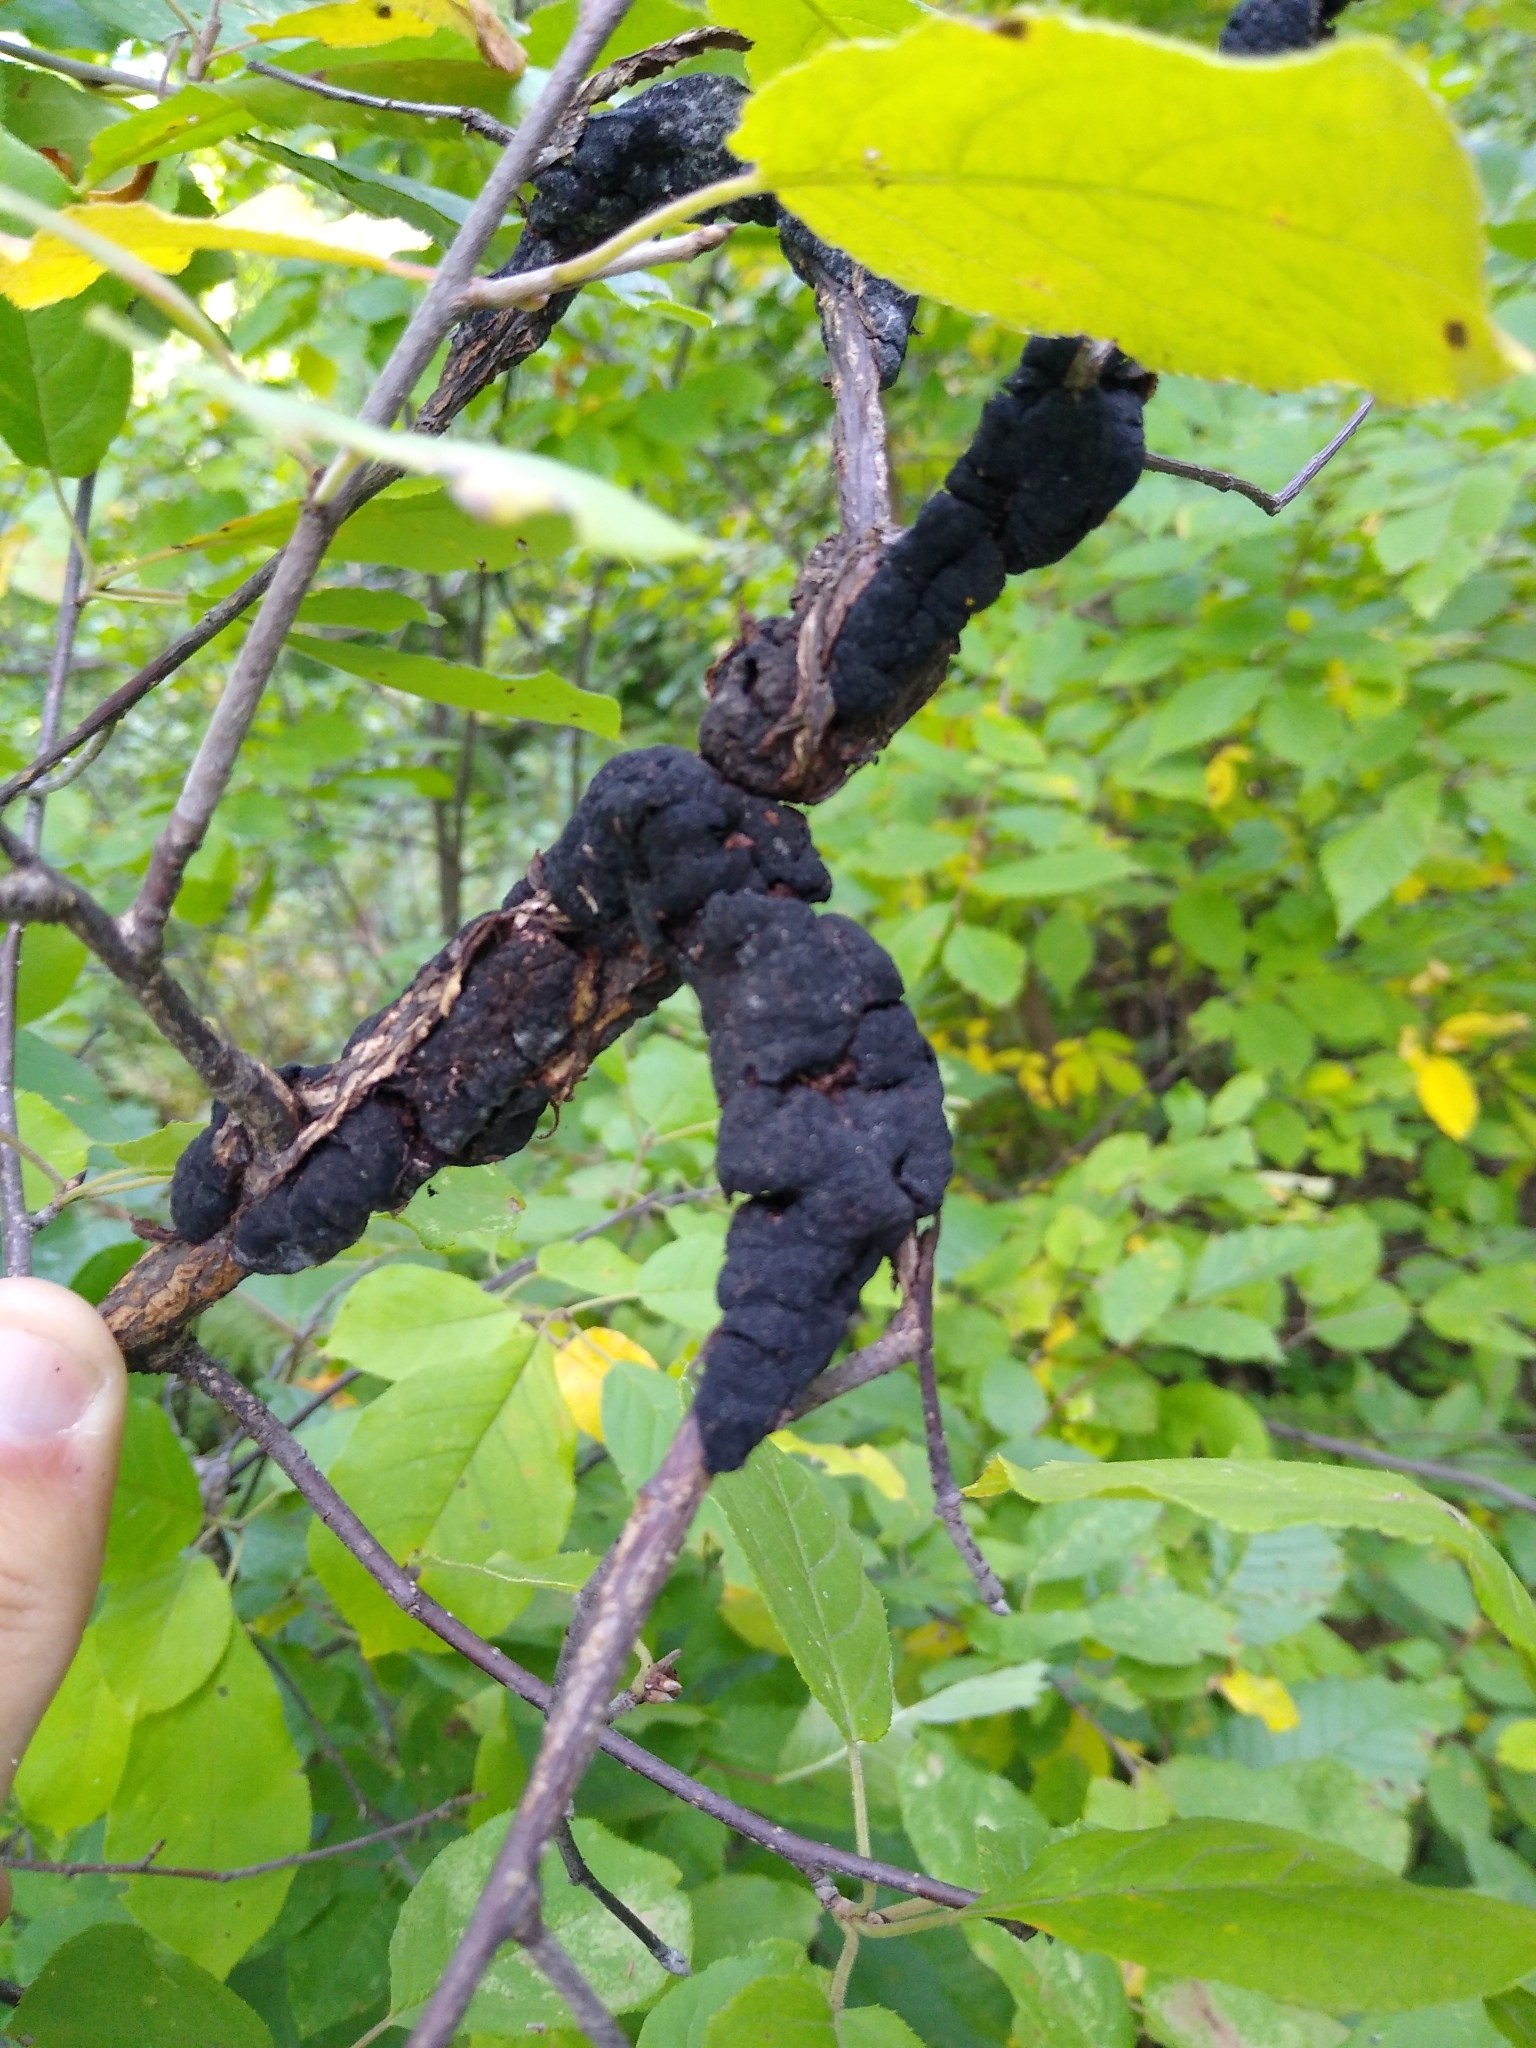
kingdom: Fungi
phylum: Ascomycota
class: Dothideomycetes
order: Venturiales
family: Venturiaceae
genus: Apiosporina
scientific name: Apiosporina morbosa
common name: Black knot
